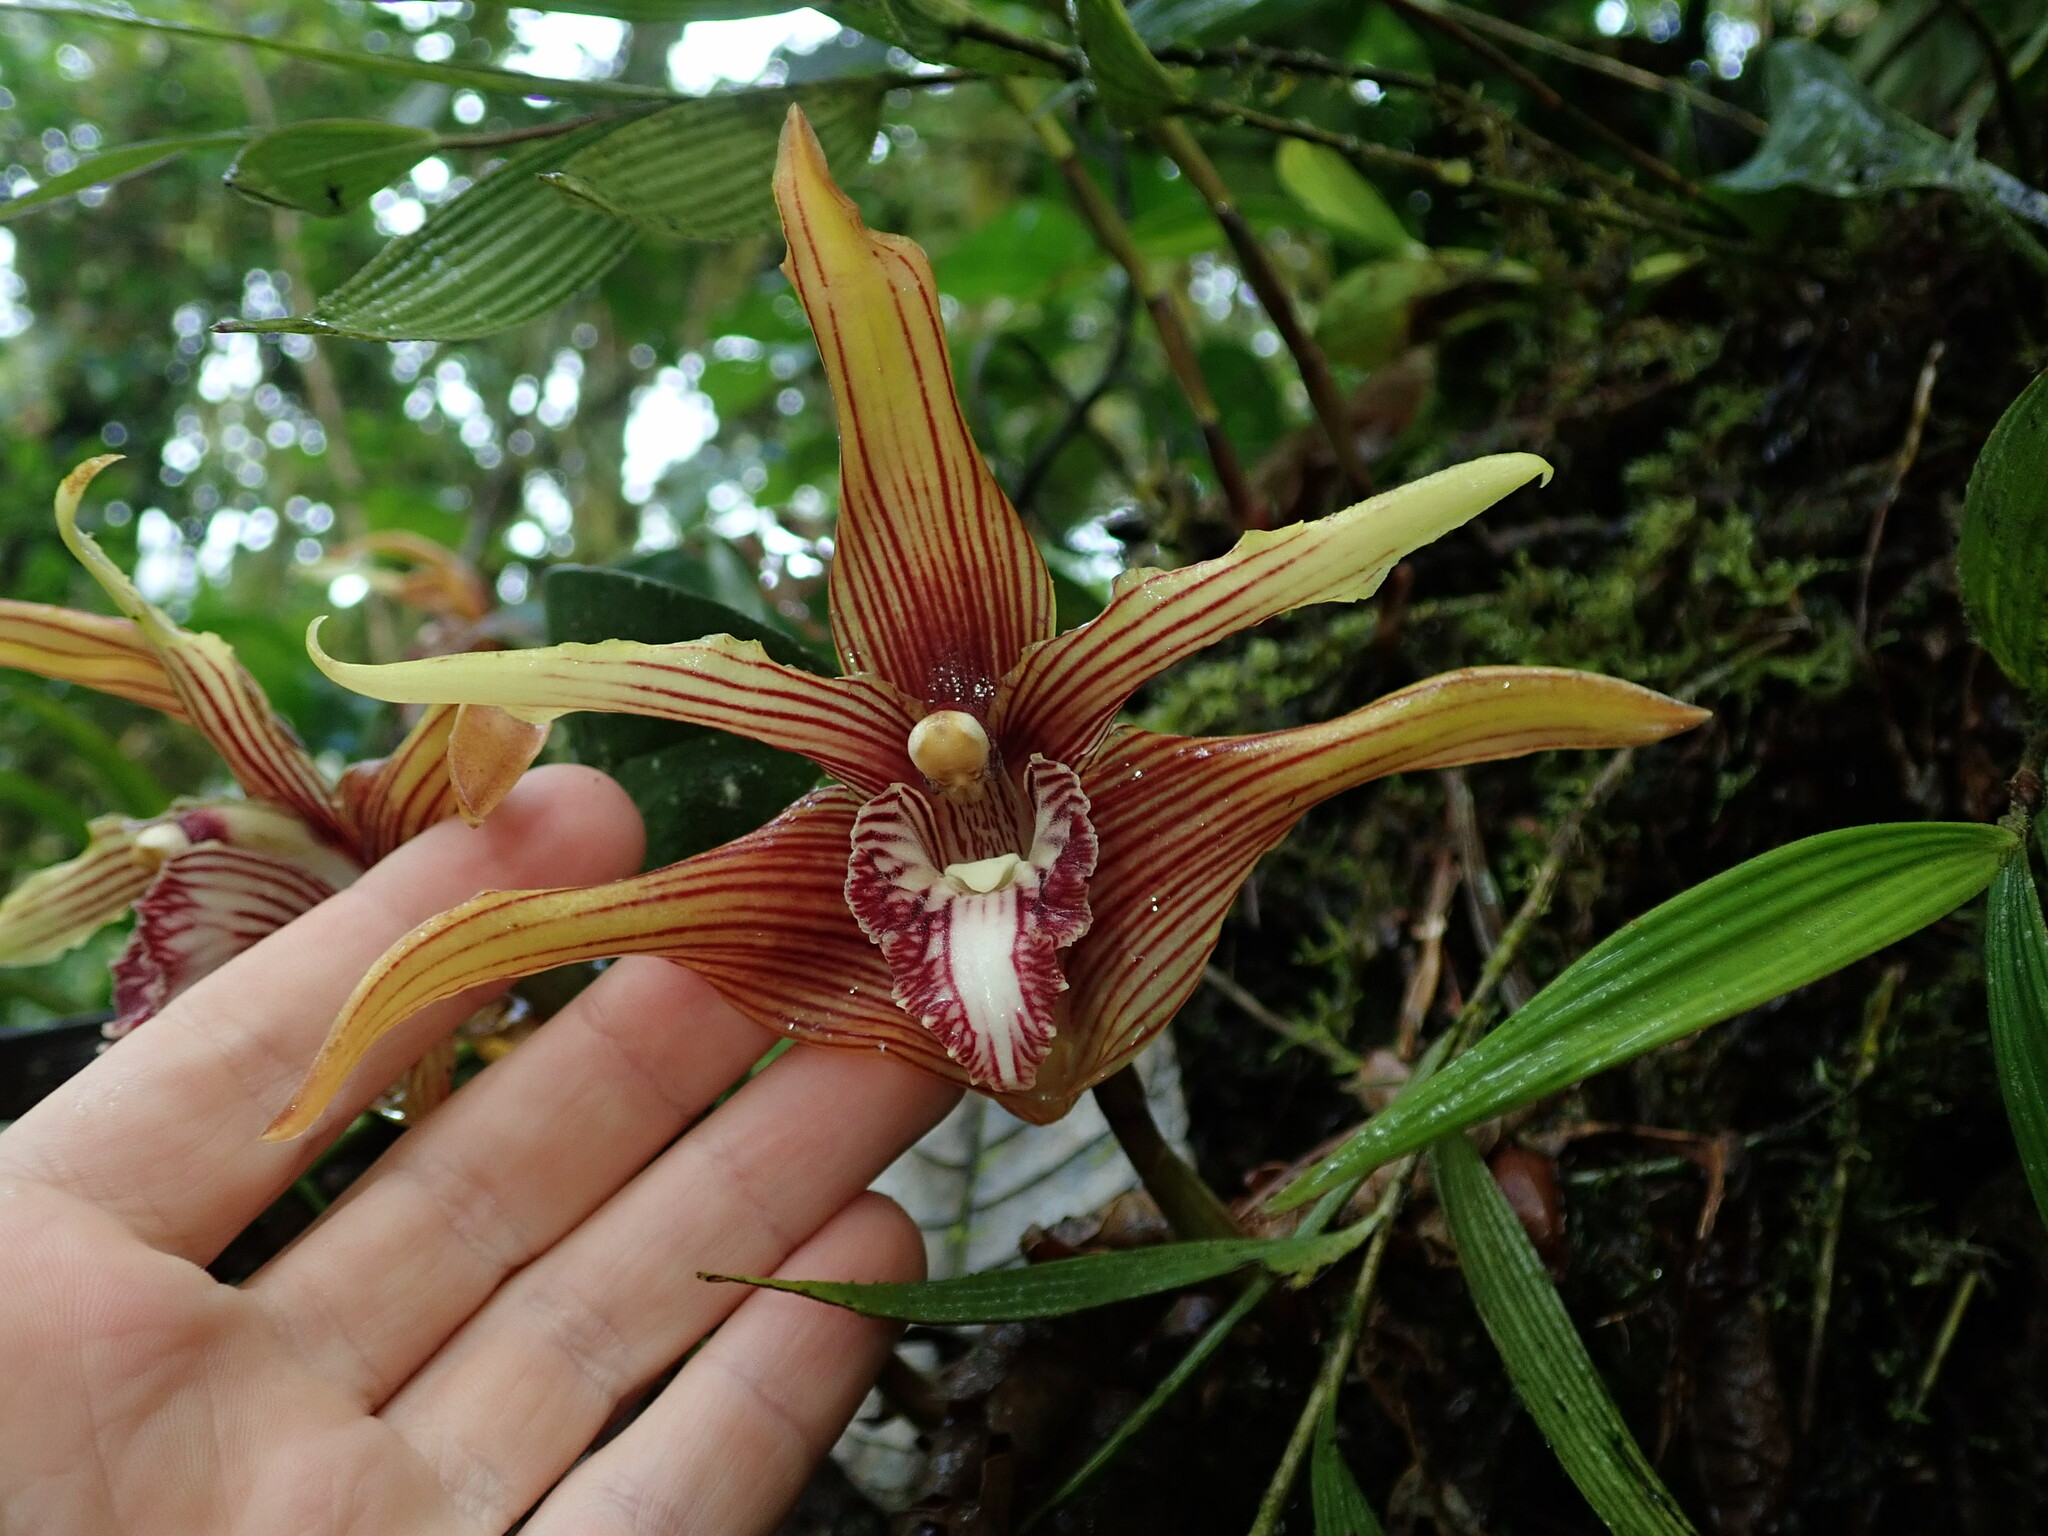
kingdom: Plantae
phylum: Tracheophyta
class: Liliopsida
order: Asparagales
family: Orchidaceae
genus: Maxillaria
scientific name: Maxillaria striata
